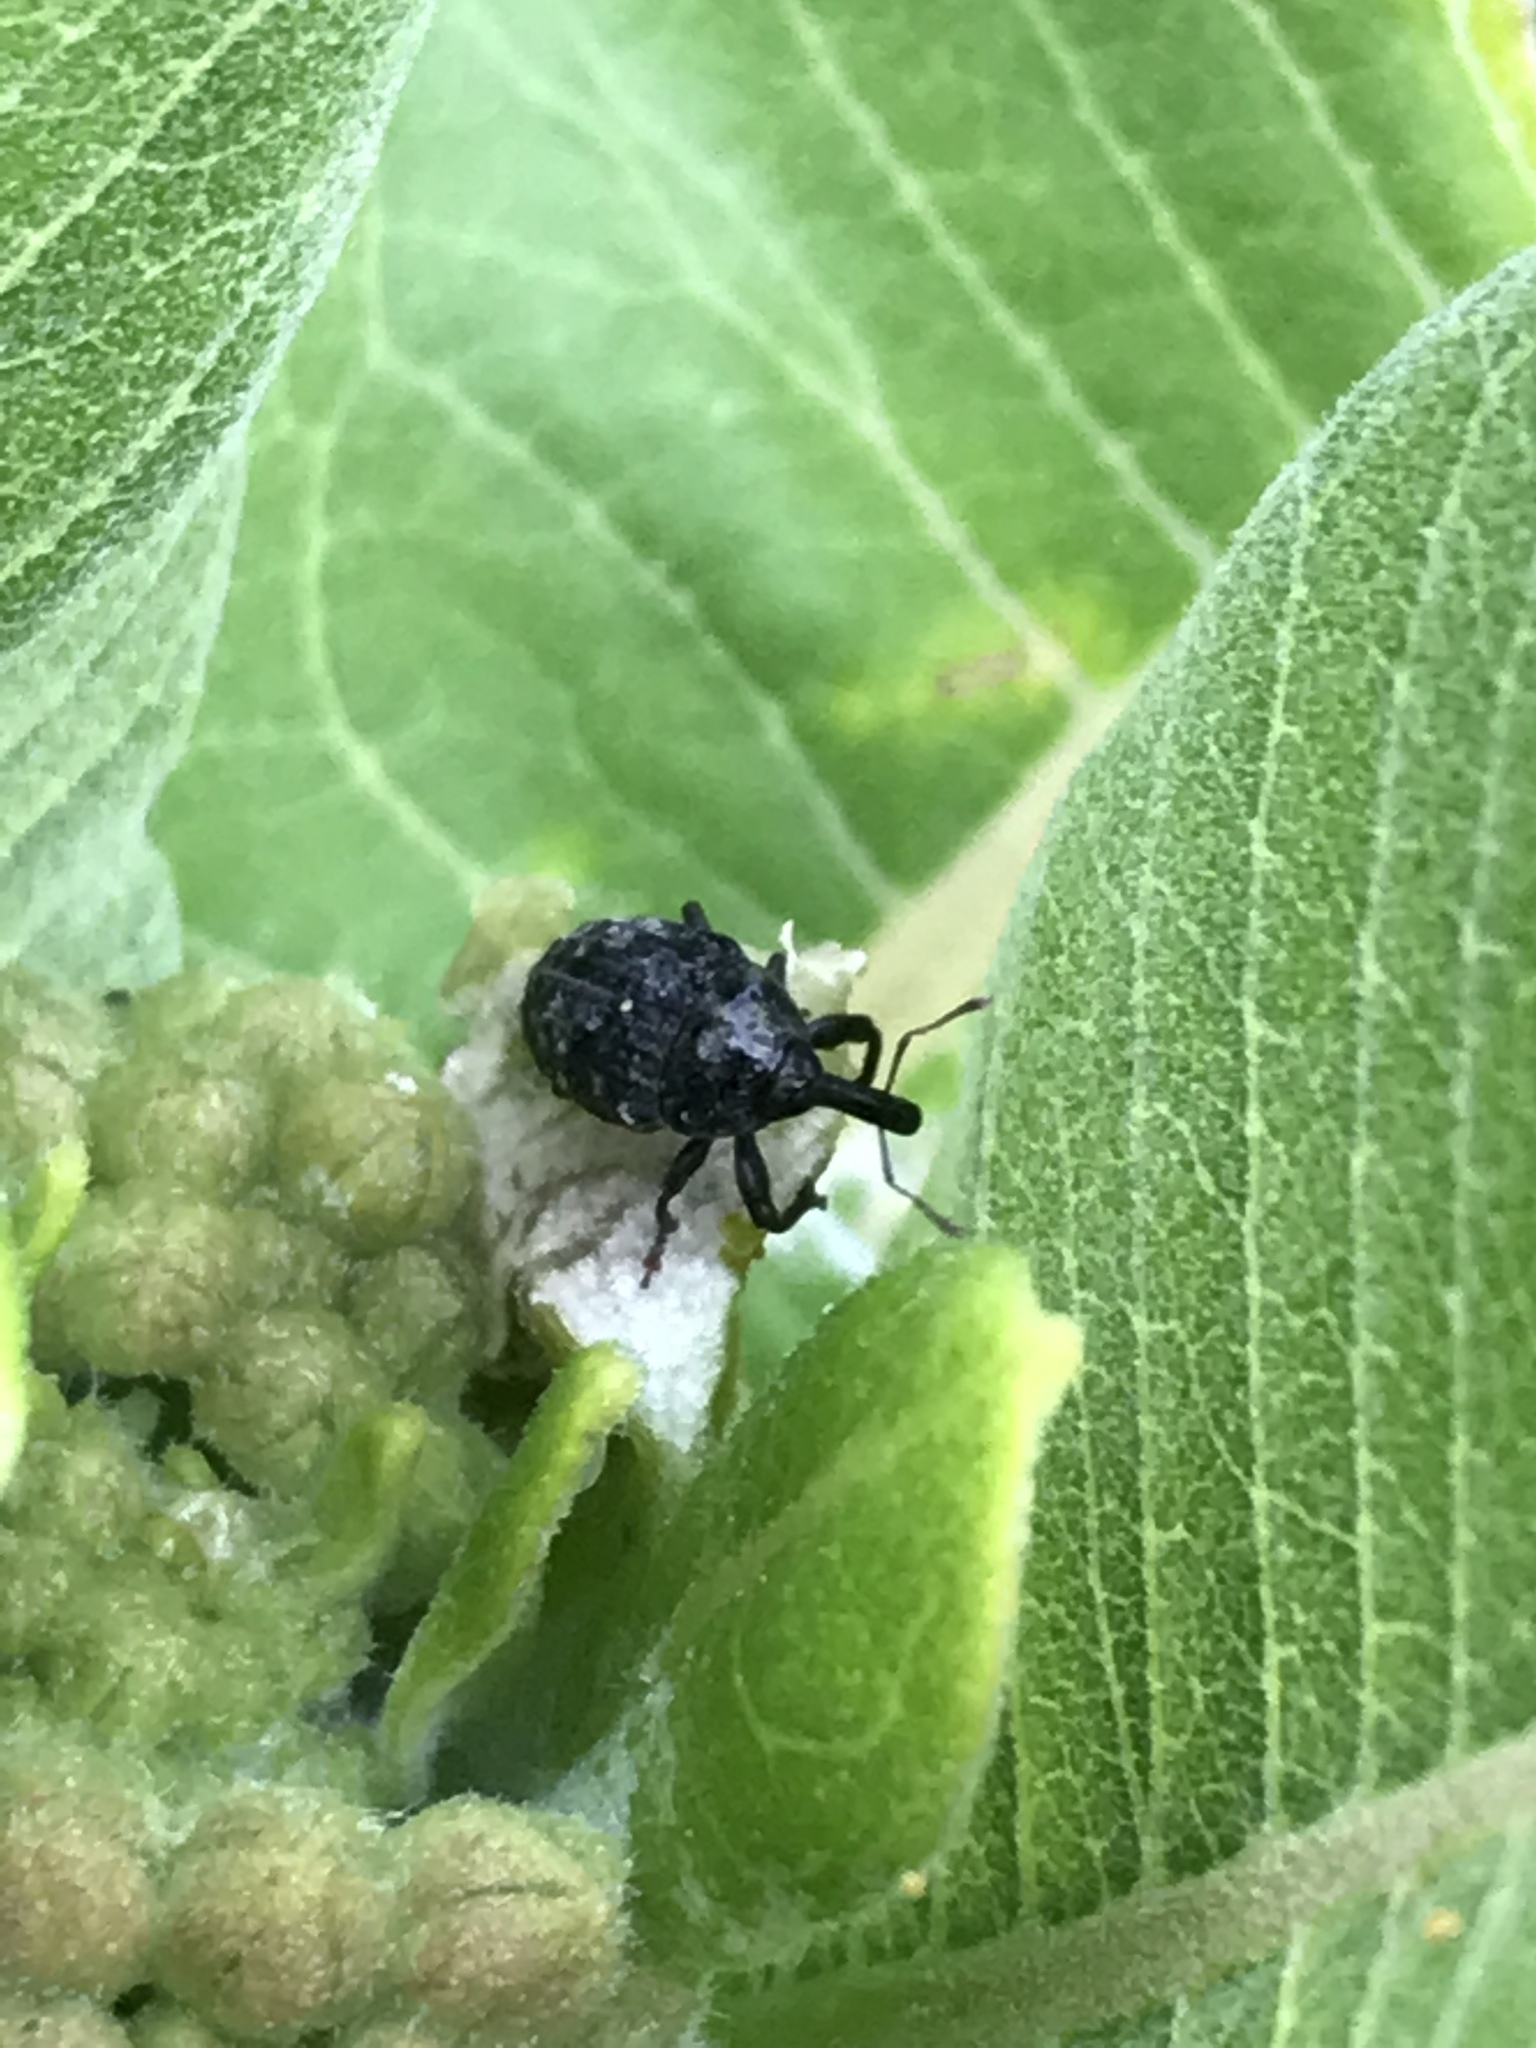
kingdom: Animalia
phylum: Arthropoda
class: Insecta
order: Coleoptera
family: Curculionidae
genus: Rhyssomatus
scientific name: Rhyssomatus lineaticollis
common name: Milkweed stem weevil
